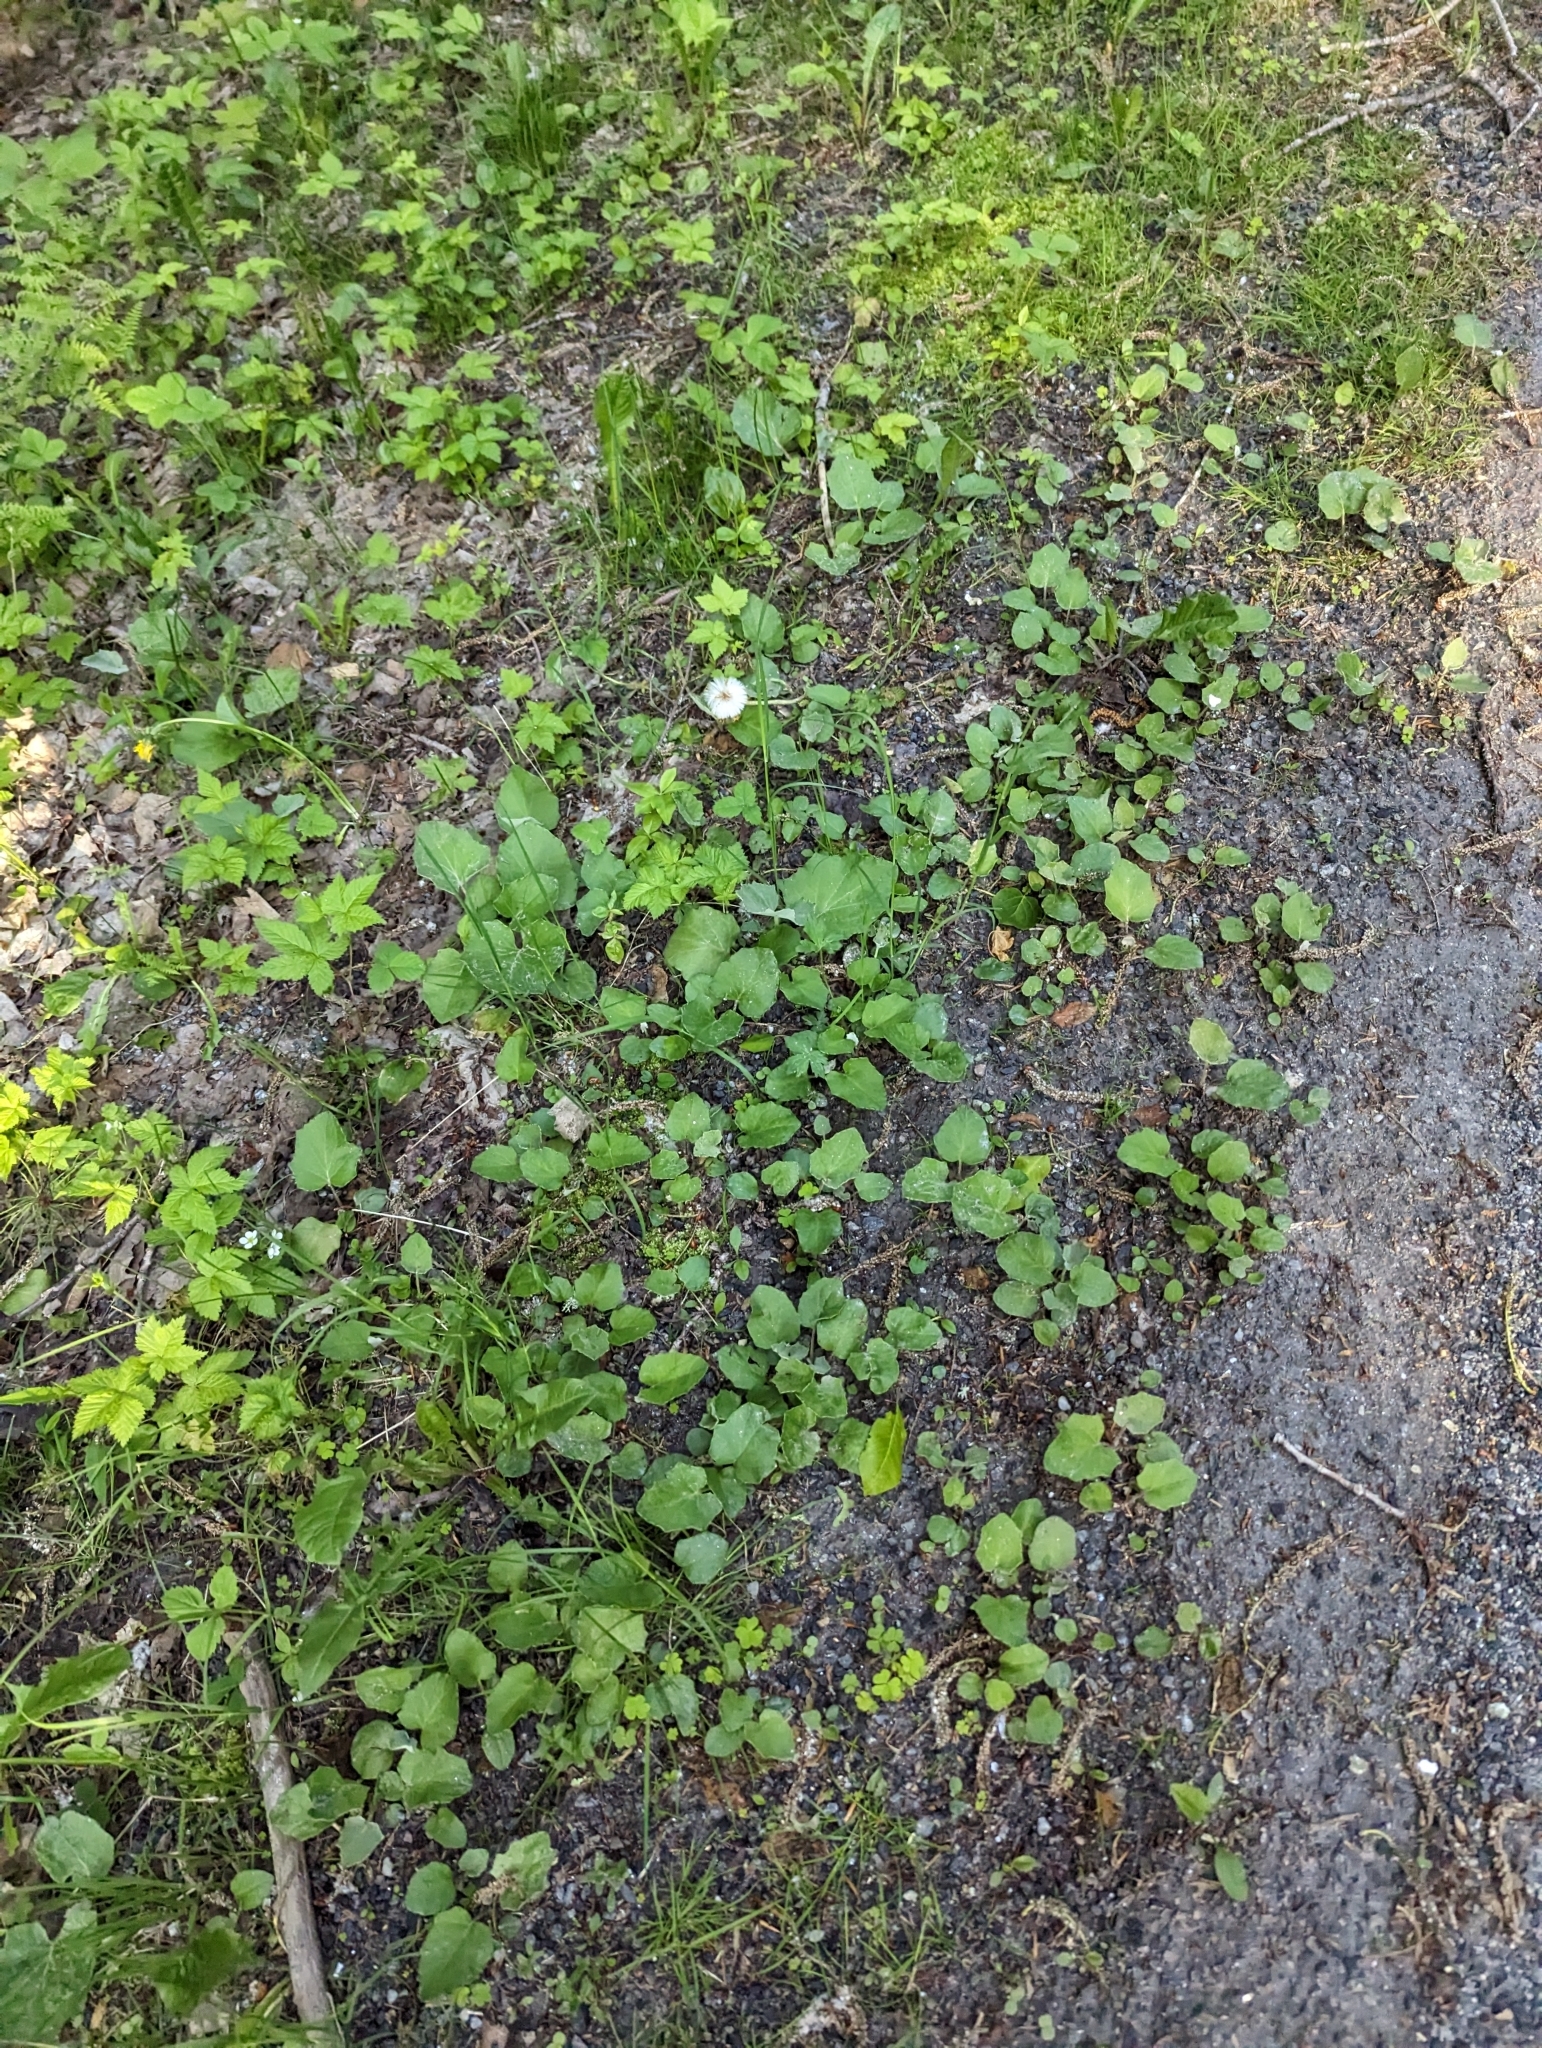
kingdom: Plantae
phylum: Tracheophyta
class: Magnoliopsida
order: Asterales
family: Asteraceae
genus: Tussilago
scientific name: Tussilago farfara
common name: Coltsfoot
